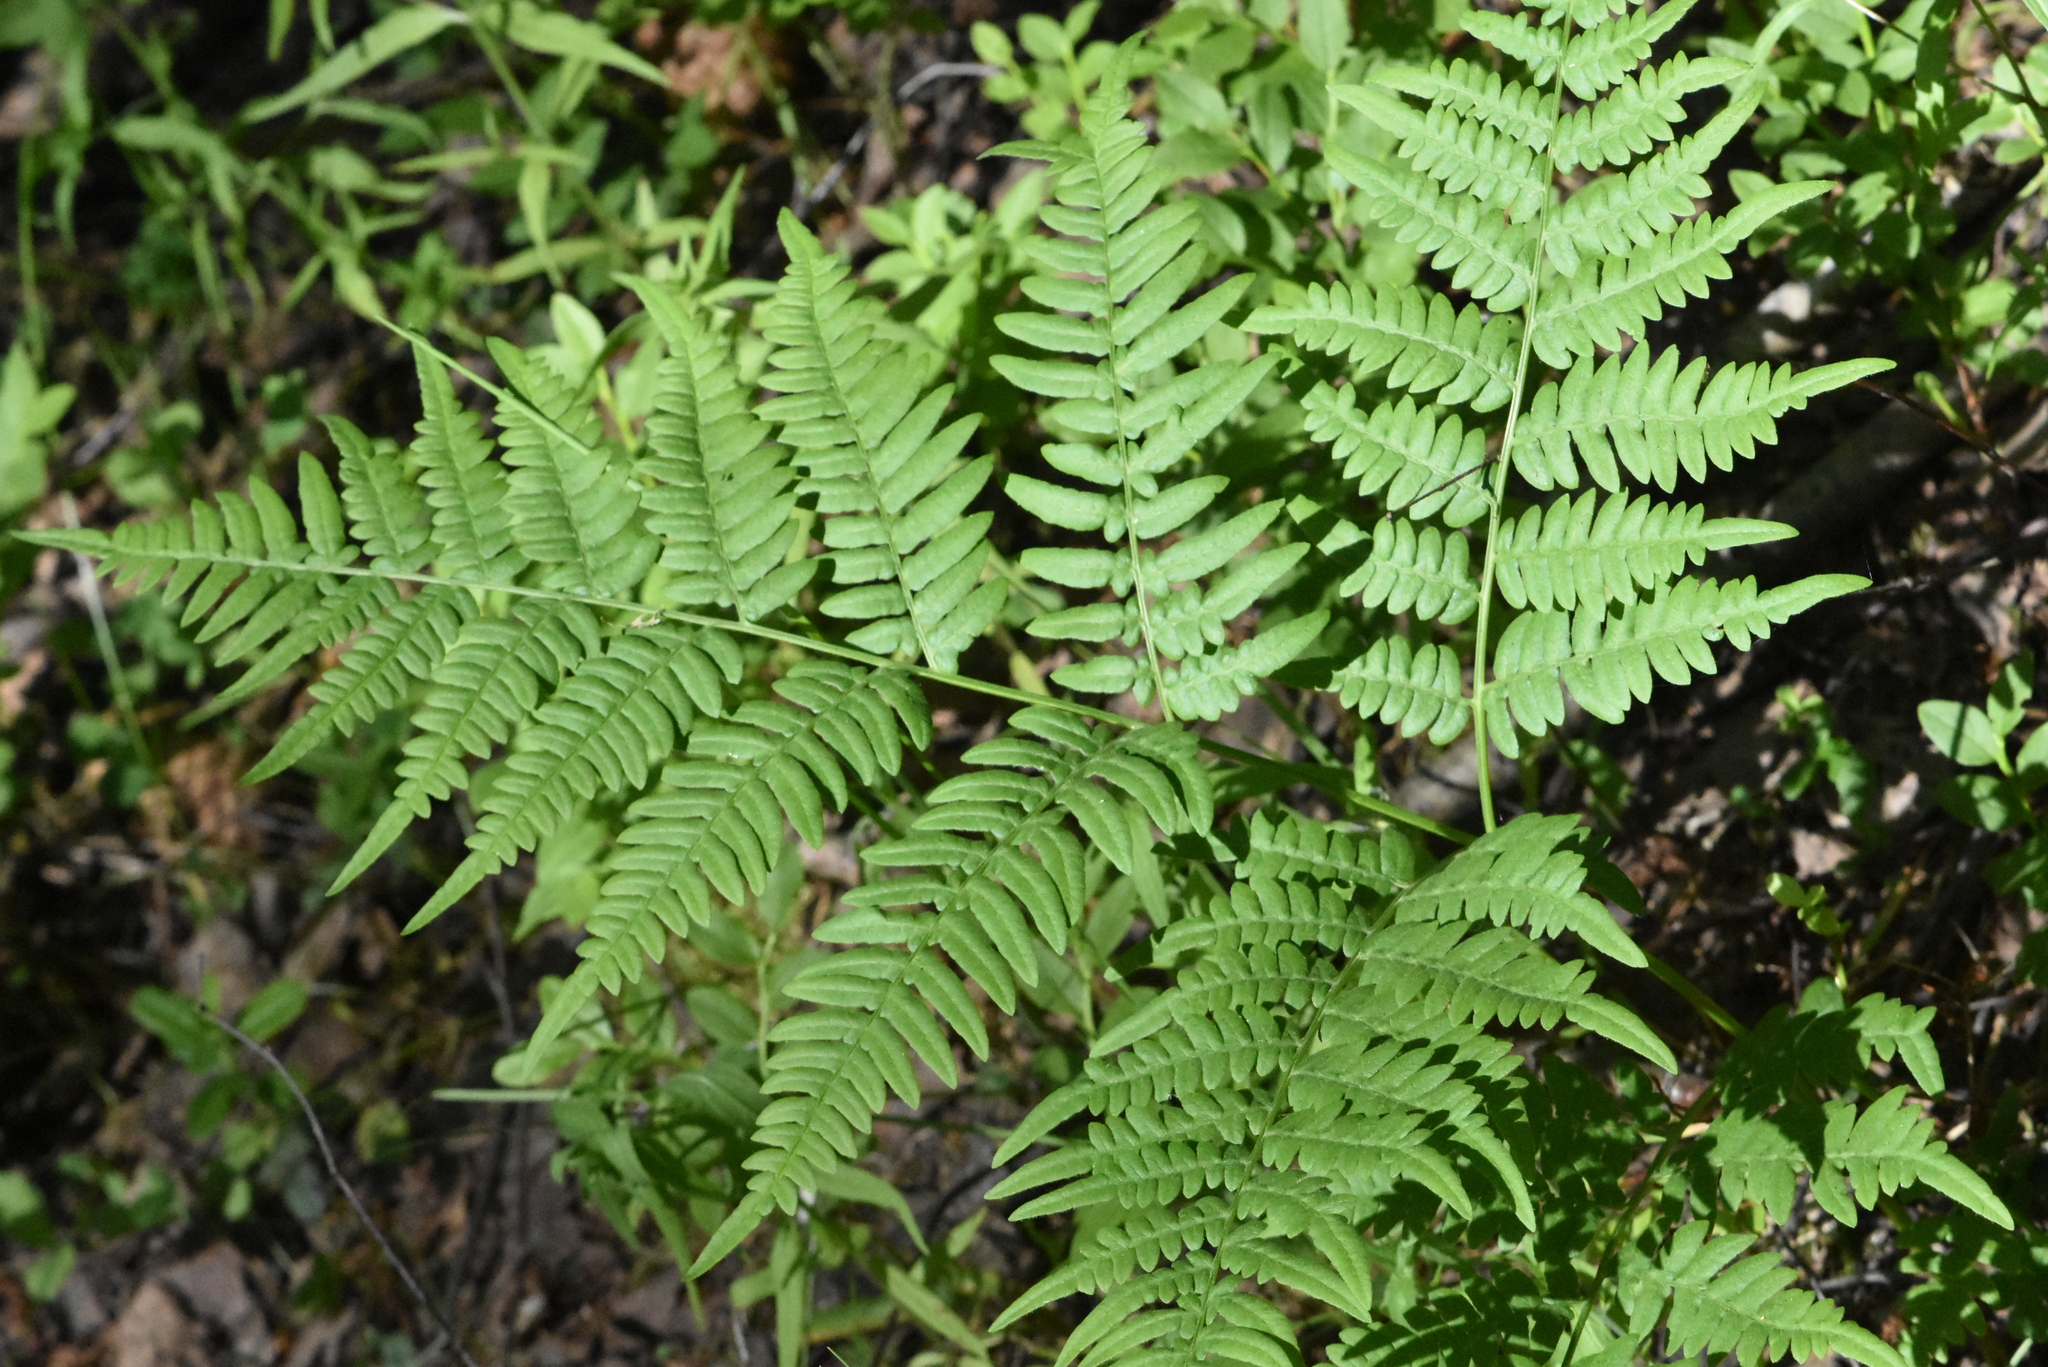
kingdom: Plantae
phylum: Tracheophyta
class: Polypodiopsida
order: Polypodiales
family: Dennstaedtiaceae
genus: Pteridium
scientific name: Pteridium aquilinum
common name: Bracken
